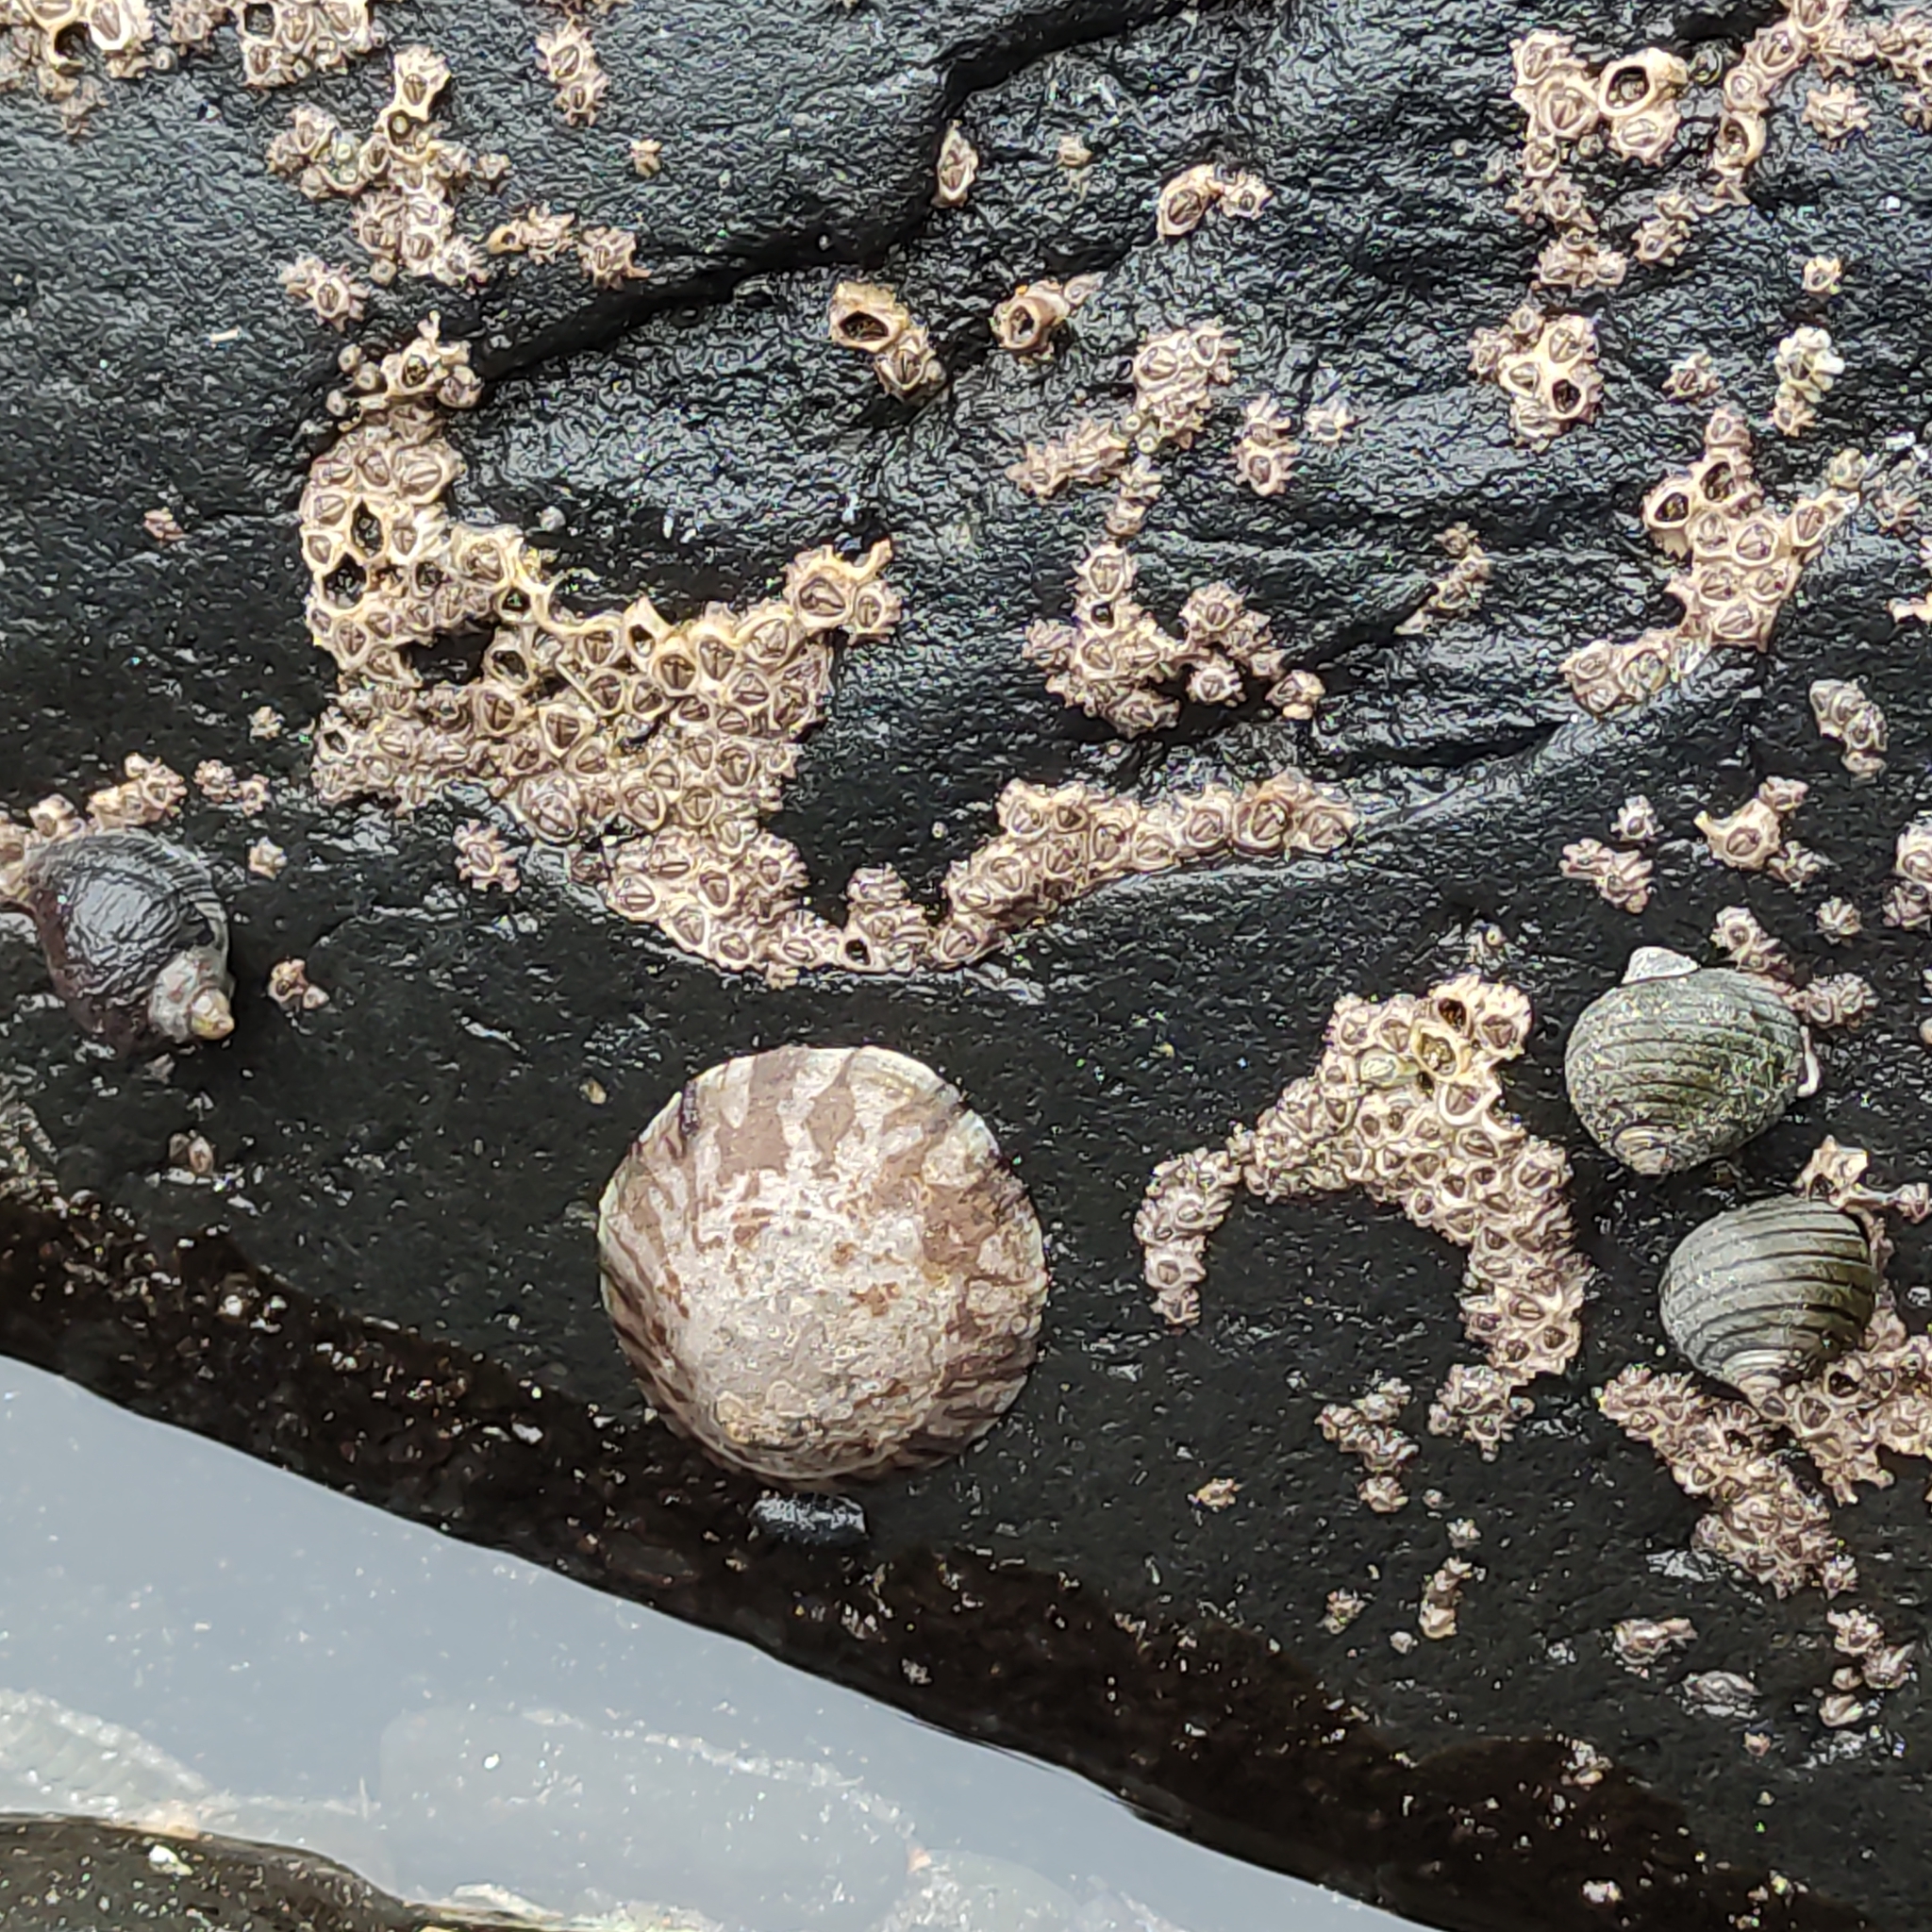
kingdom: Animalia
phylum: Mollusca
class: Gastropoda
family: Nacellidae
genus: Cellana
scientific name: Cellana radians
